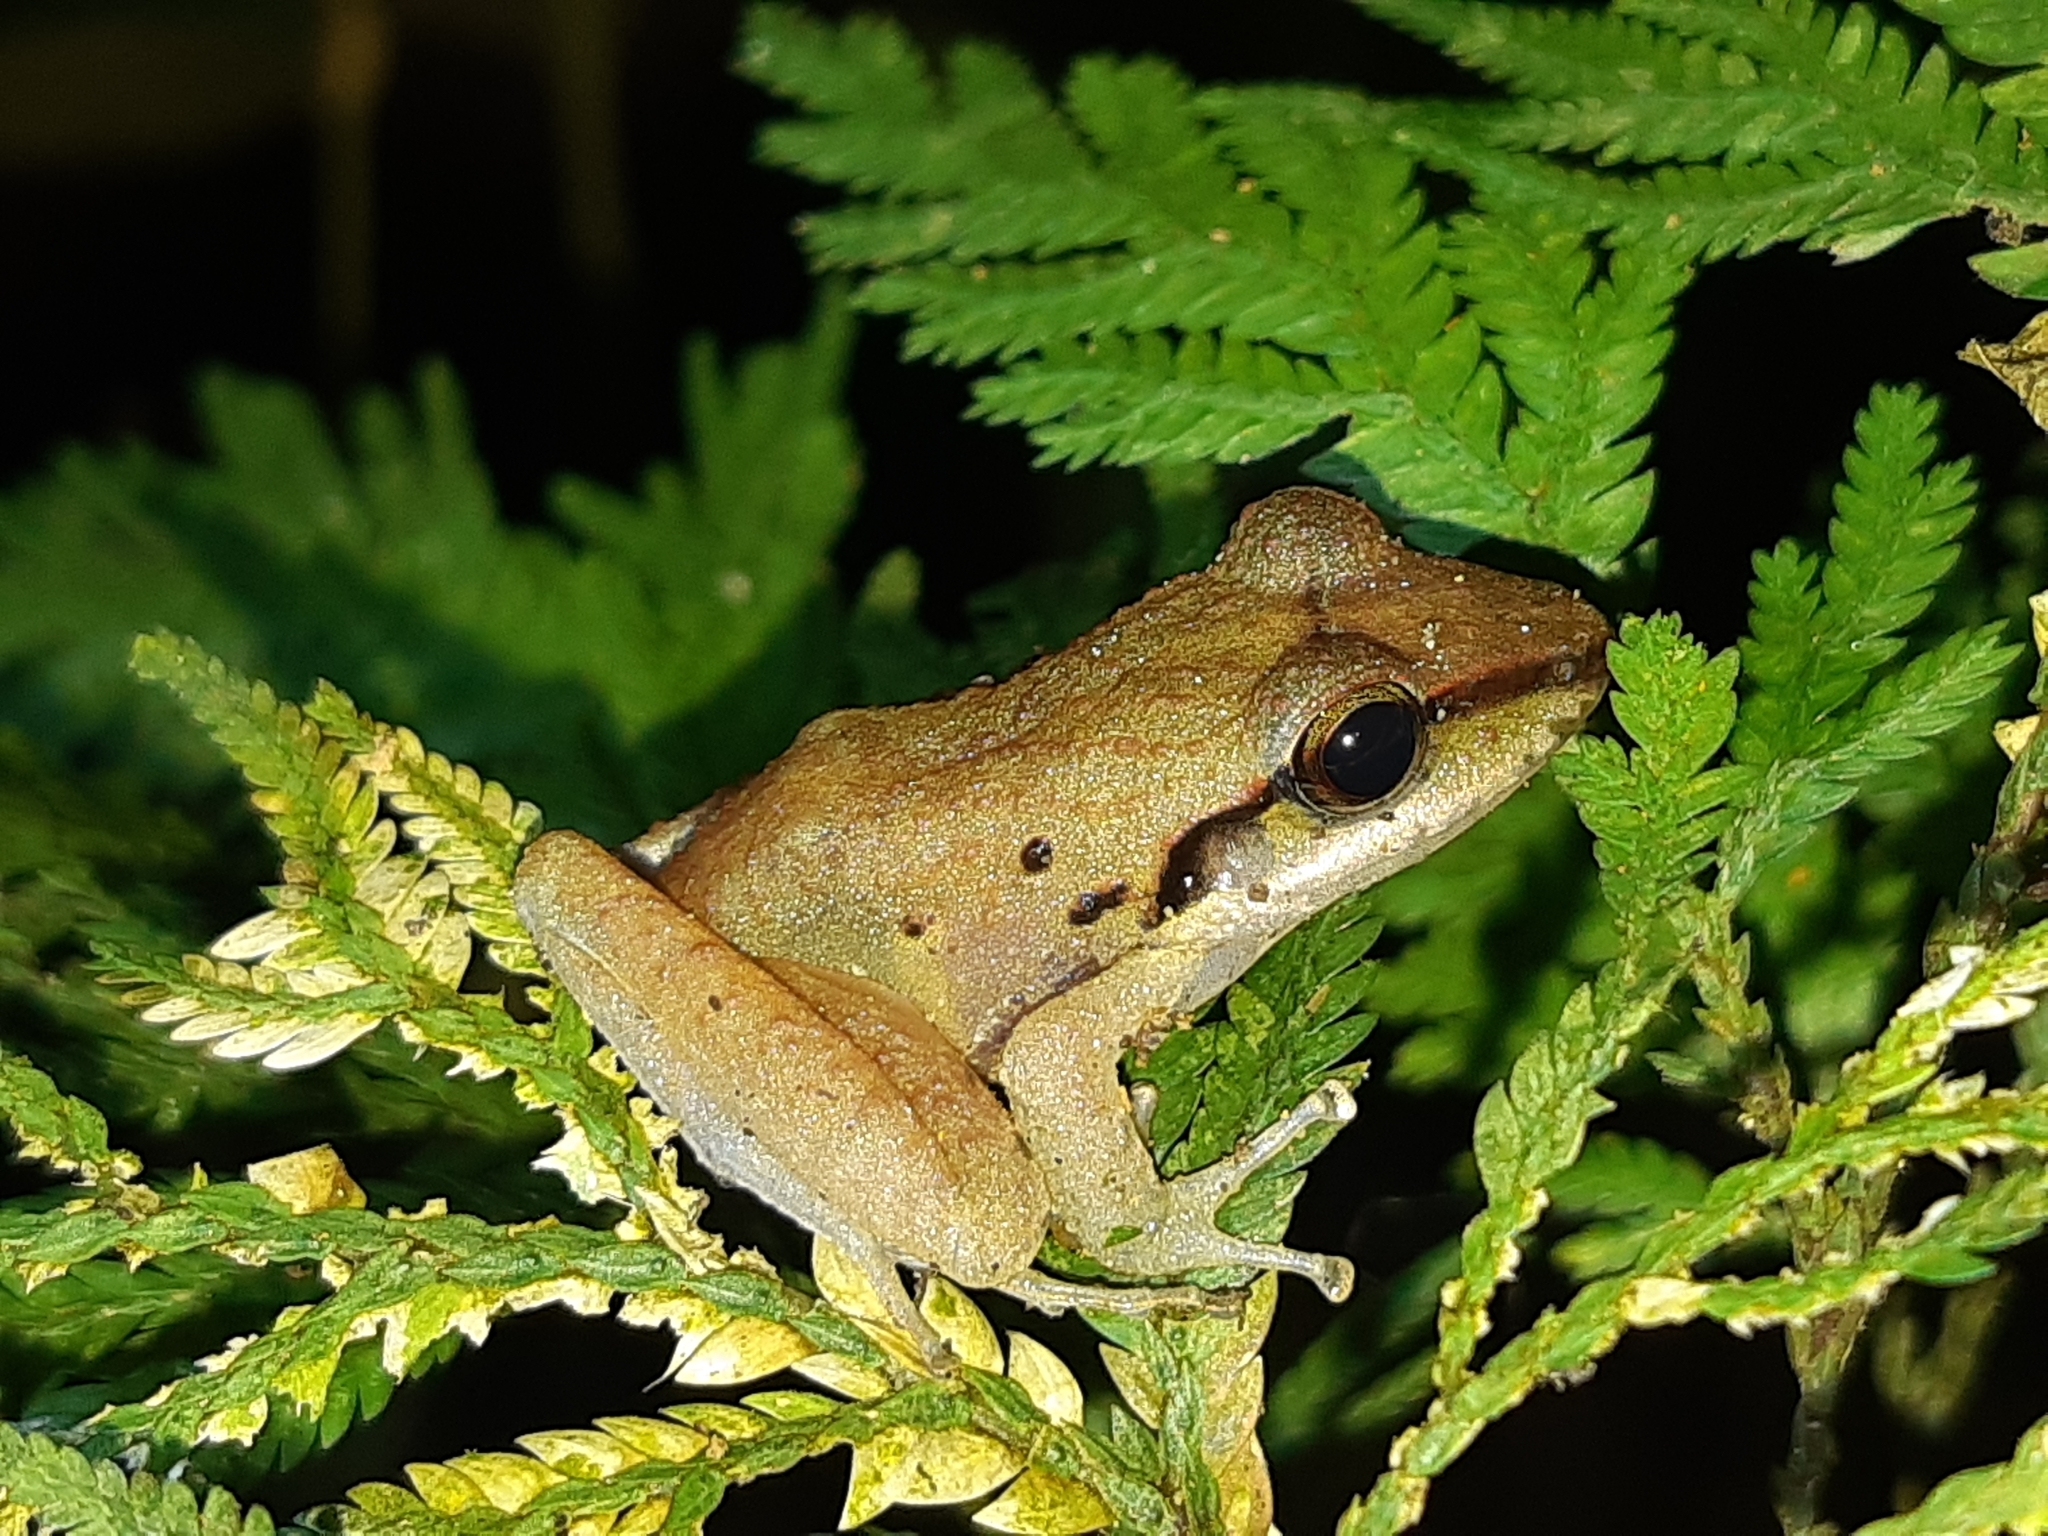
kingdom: Animalia
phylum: Chordata
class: Amphibia
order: Anura
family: Craugastoridae
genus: Pristimantis
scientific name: Pristimantis achatinus
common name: Cachabi robber frog
